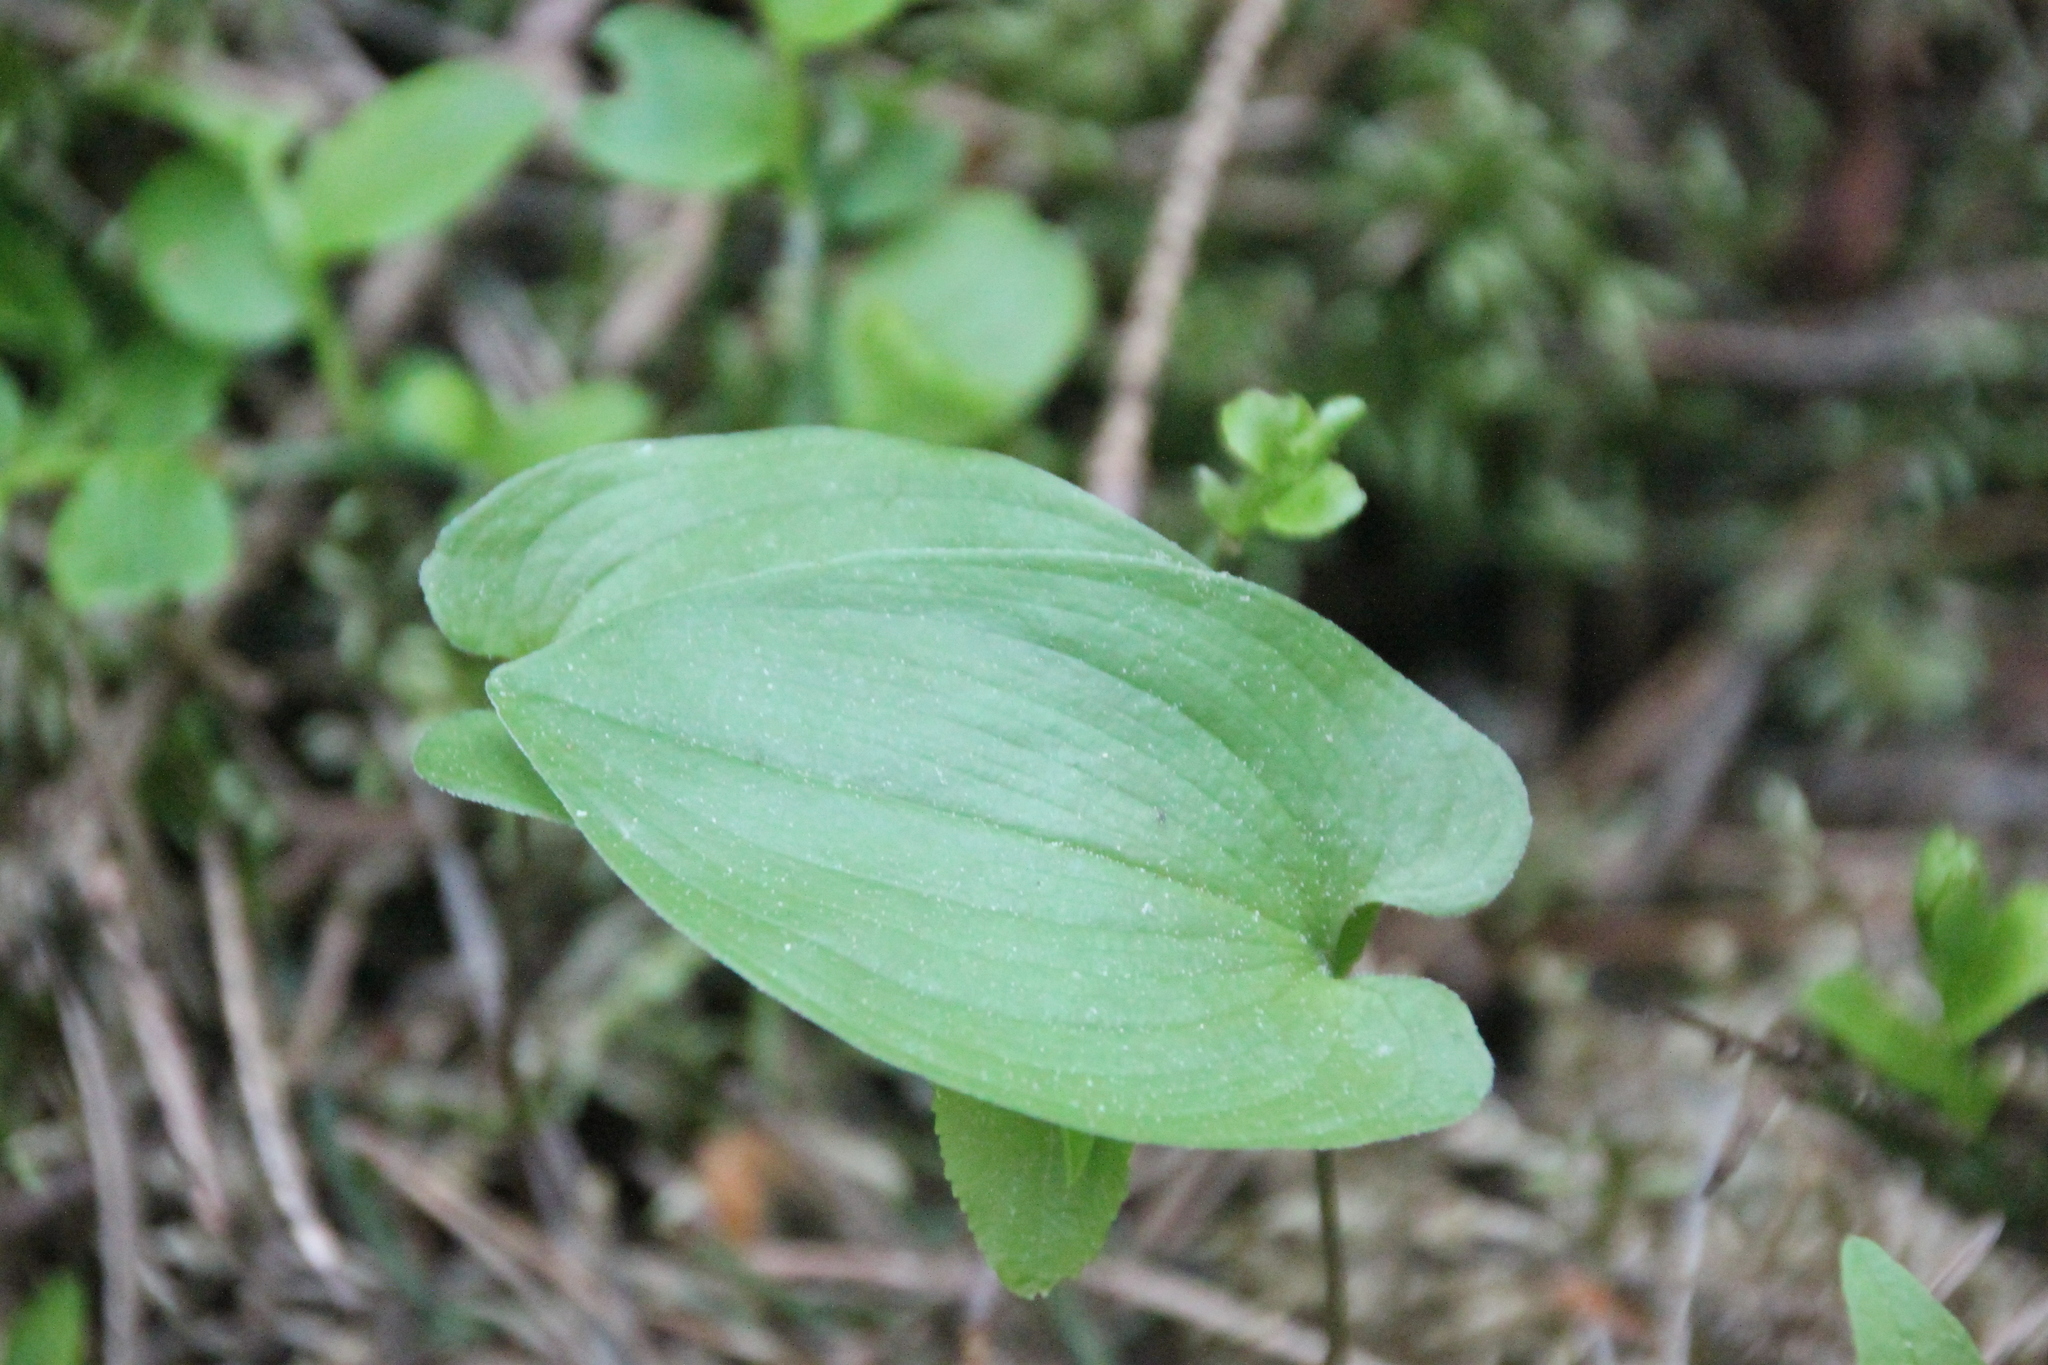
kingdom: Plantae
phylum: Tracheophyta
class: Liliopsida
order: Asparagales
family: Asparagaceae
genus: Maianthemum
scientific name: Maianthemum bifolium
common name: May lily
